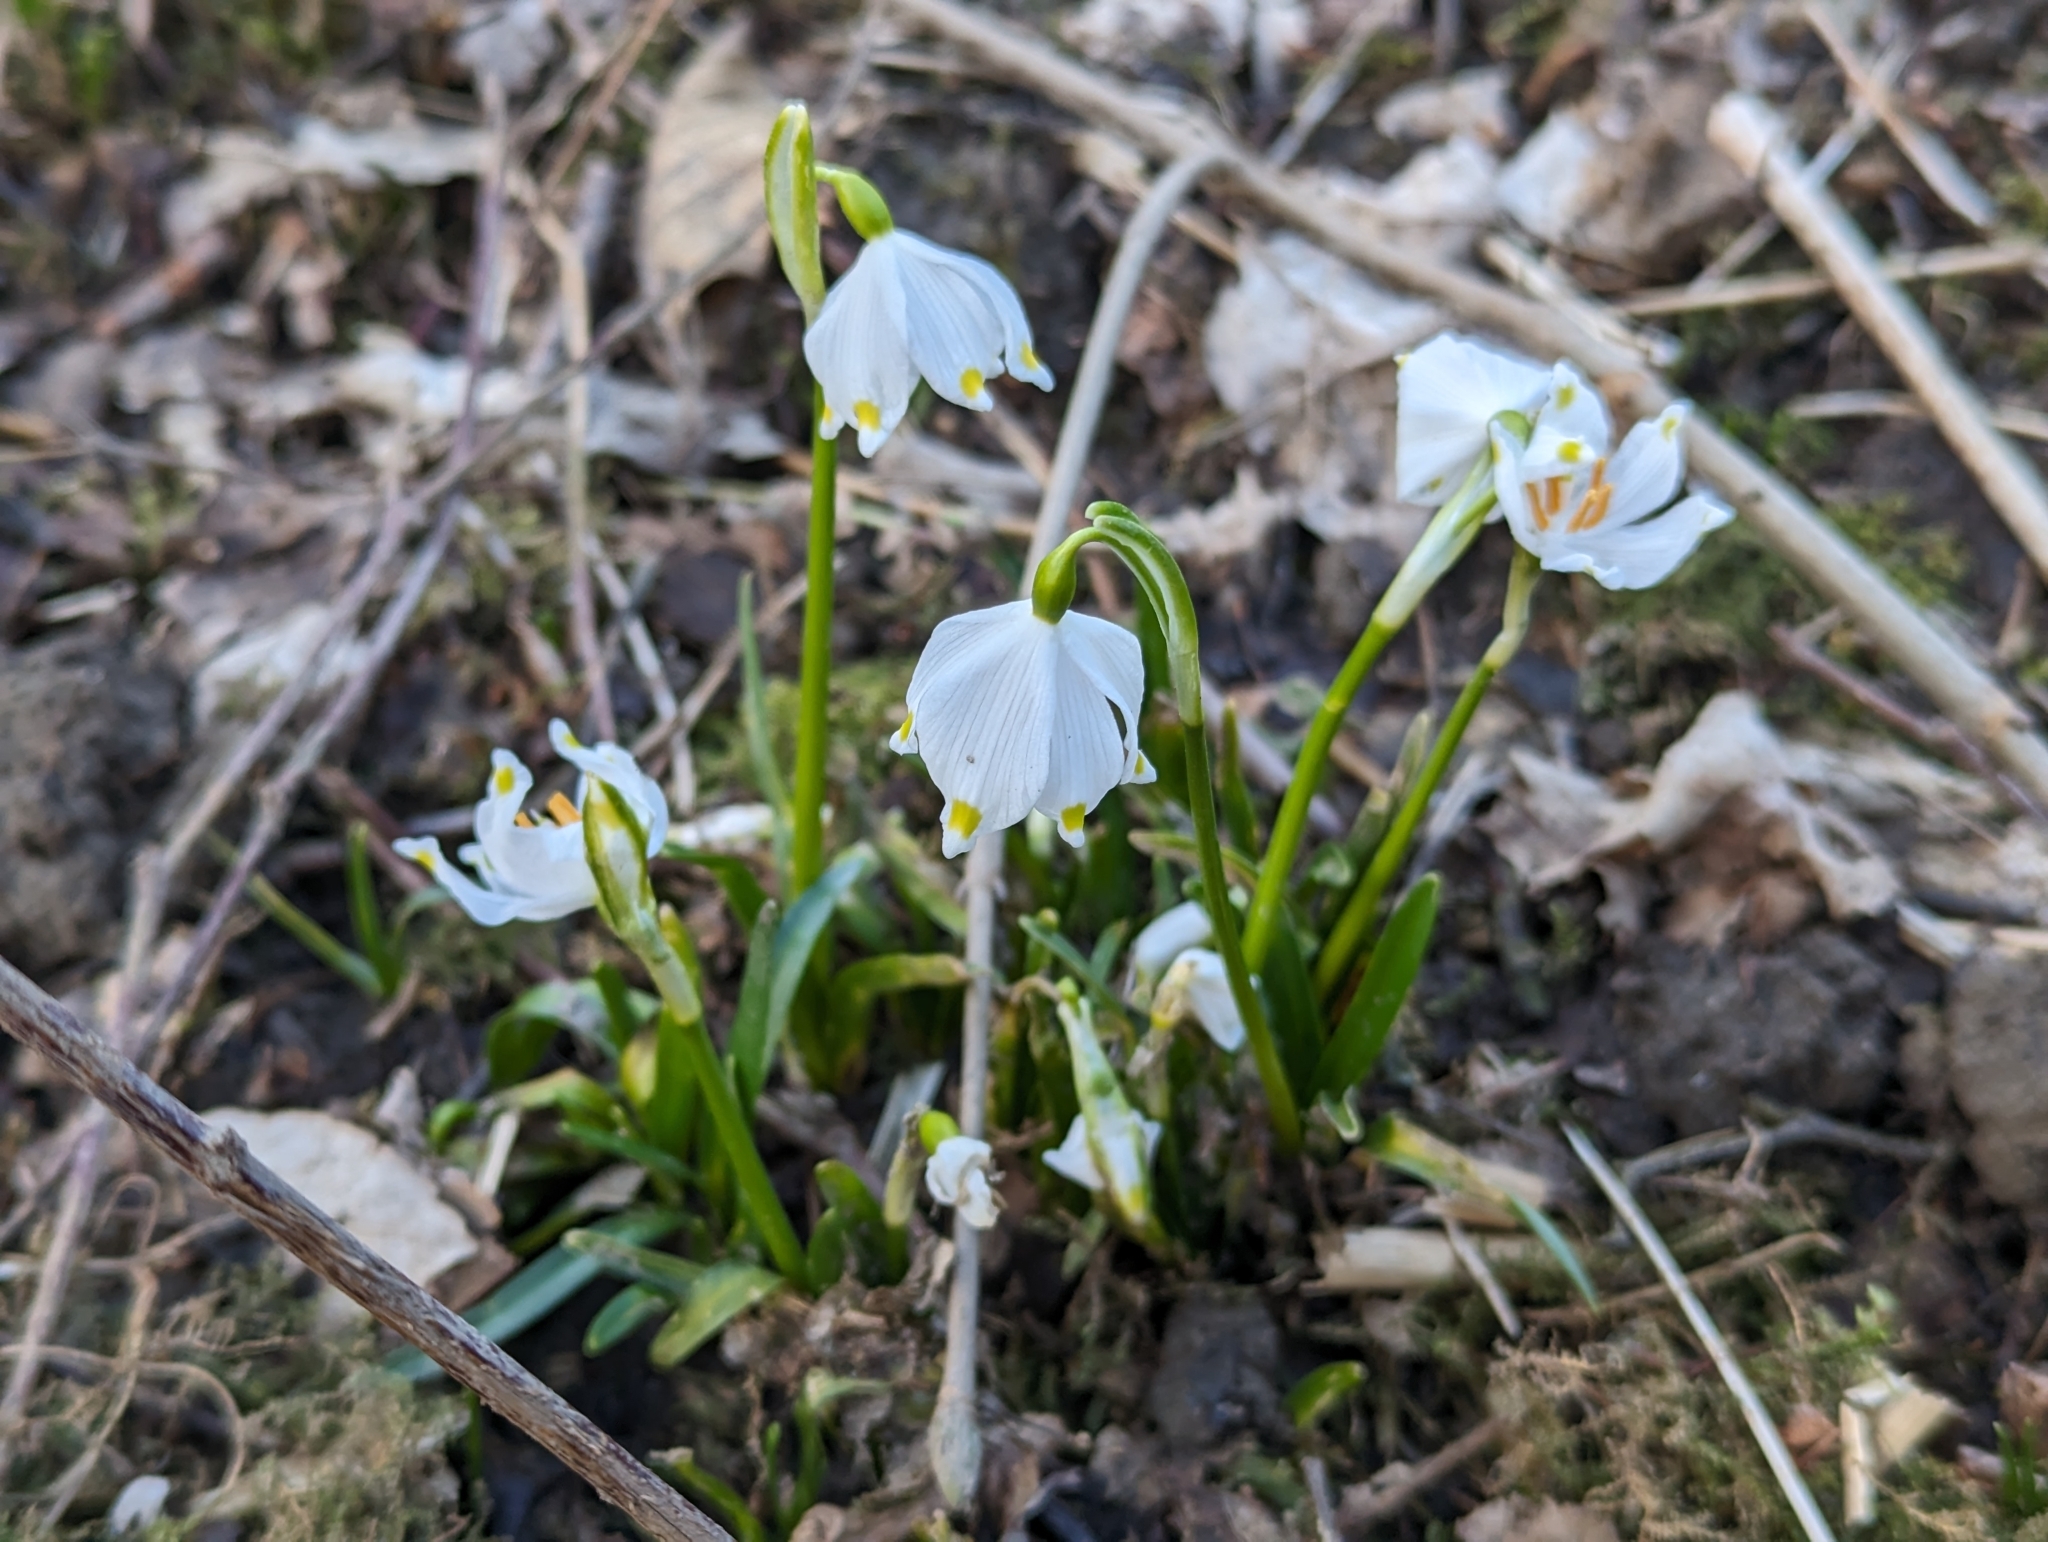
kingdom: Plantae
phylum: Tracheophyta
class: Liliopsida
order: Asparagales
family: Amaryllidaceae
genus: Leucojum
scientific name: Leucojum vernum
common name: Spring snowflake
